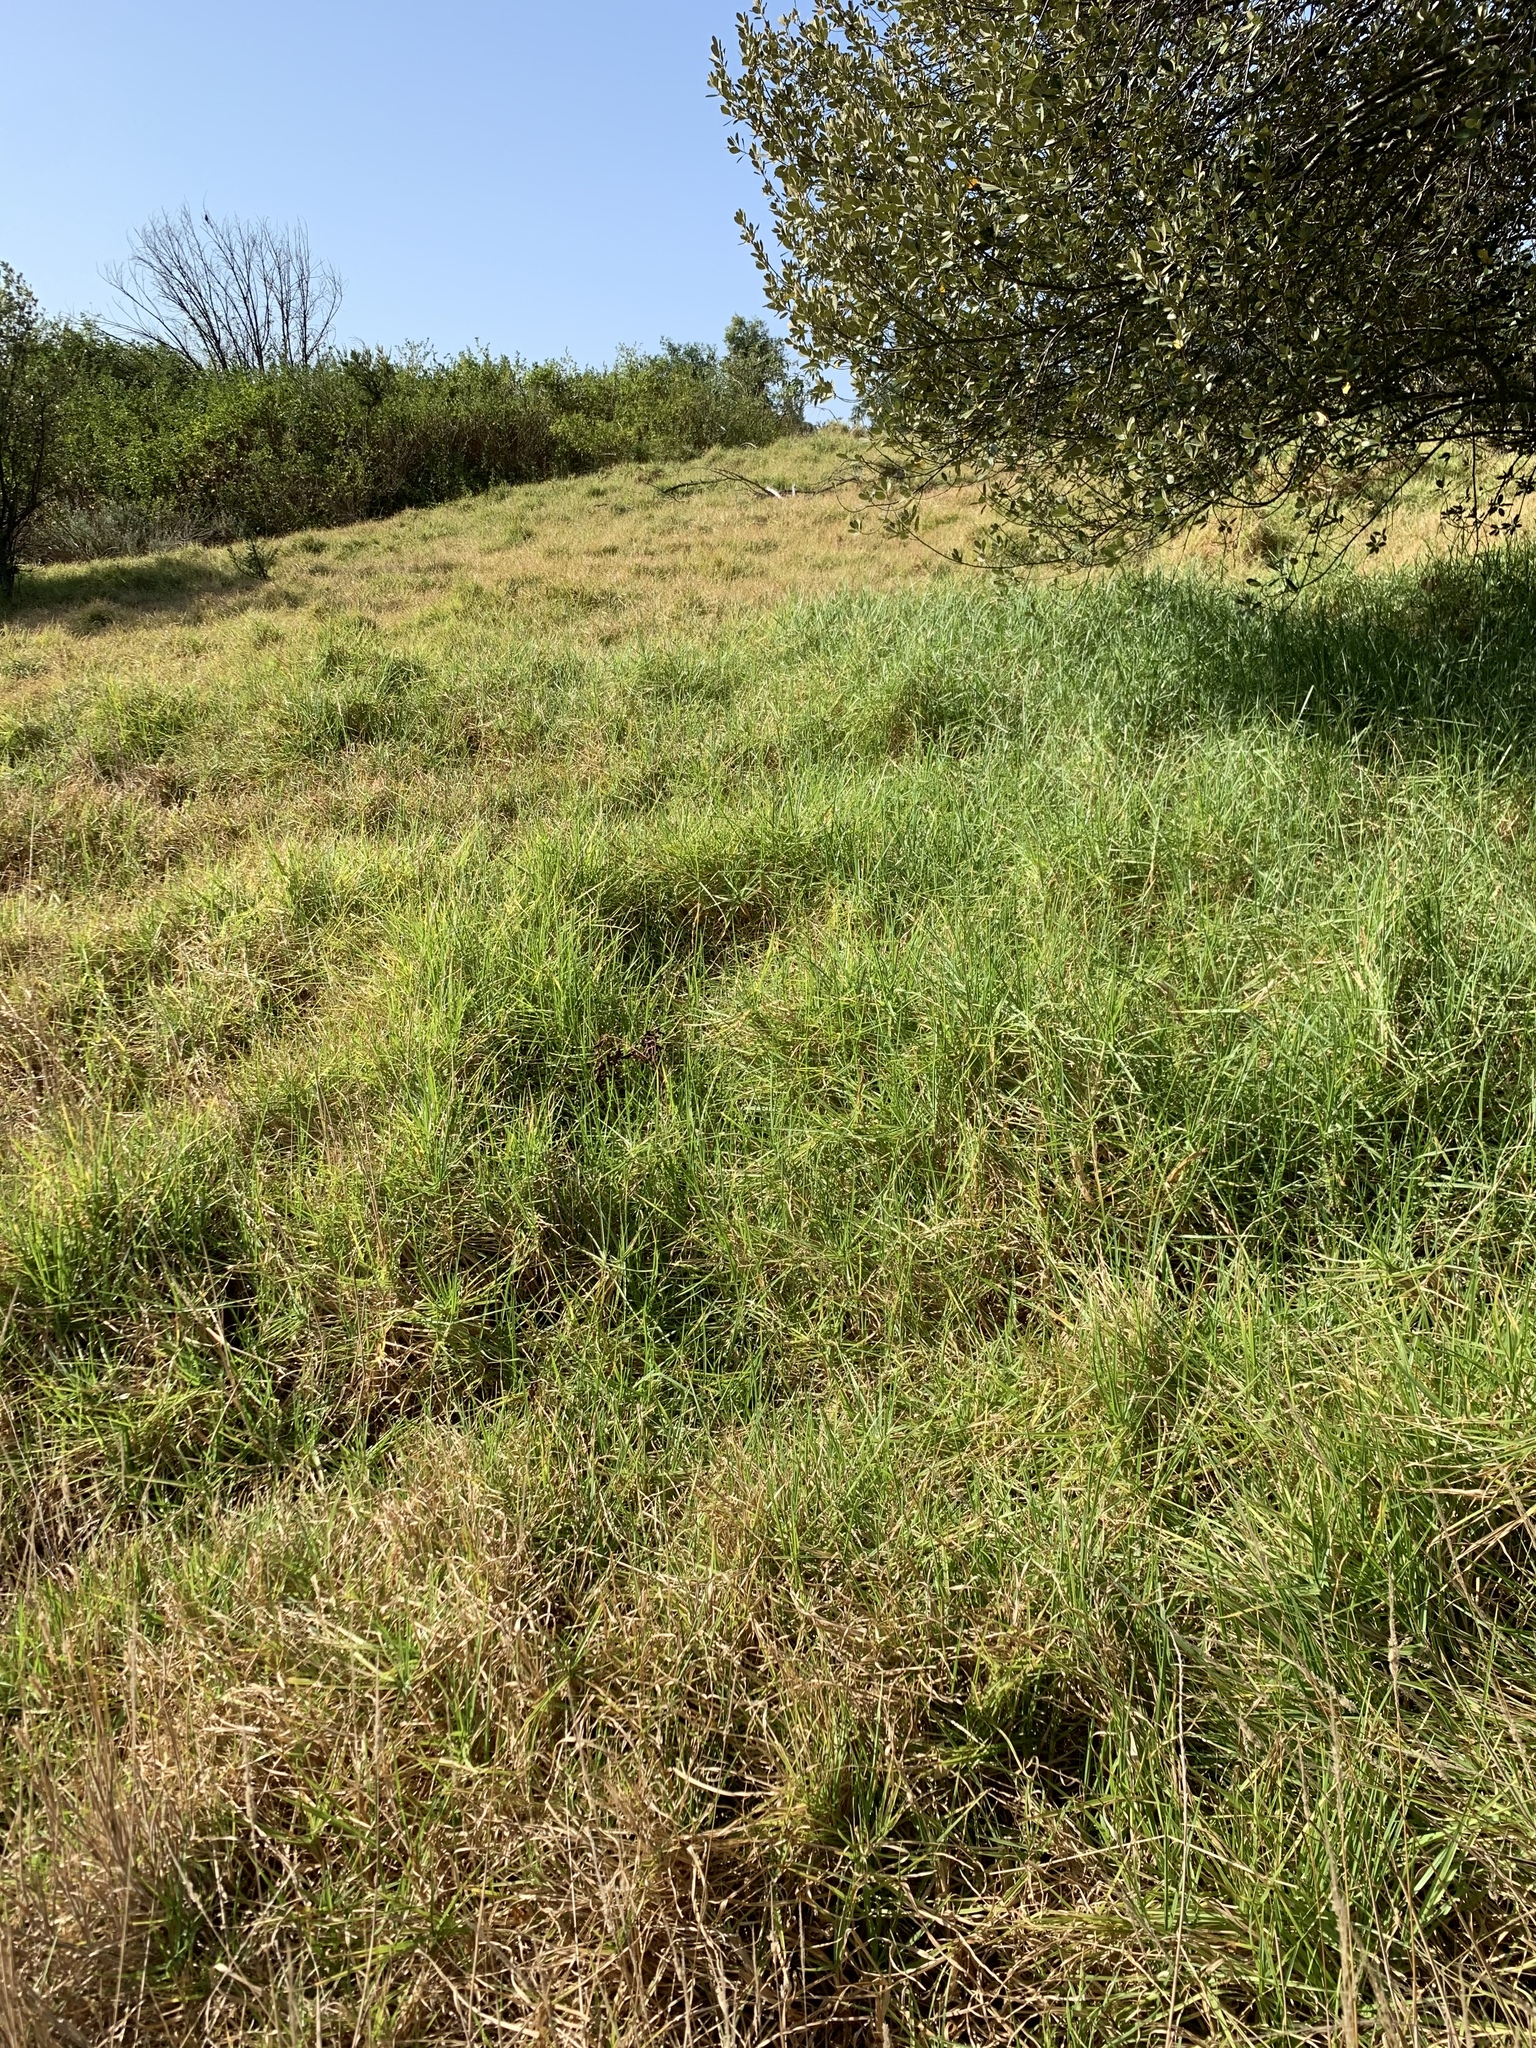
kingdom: Plantae
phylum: Tracheophyta
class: Liliopsida
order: Poales
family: Poaceae
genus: Cenchrus
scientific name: Cenchrus clandestinus
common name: Kikuyugrass
